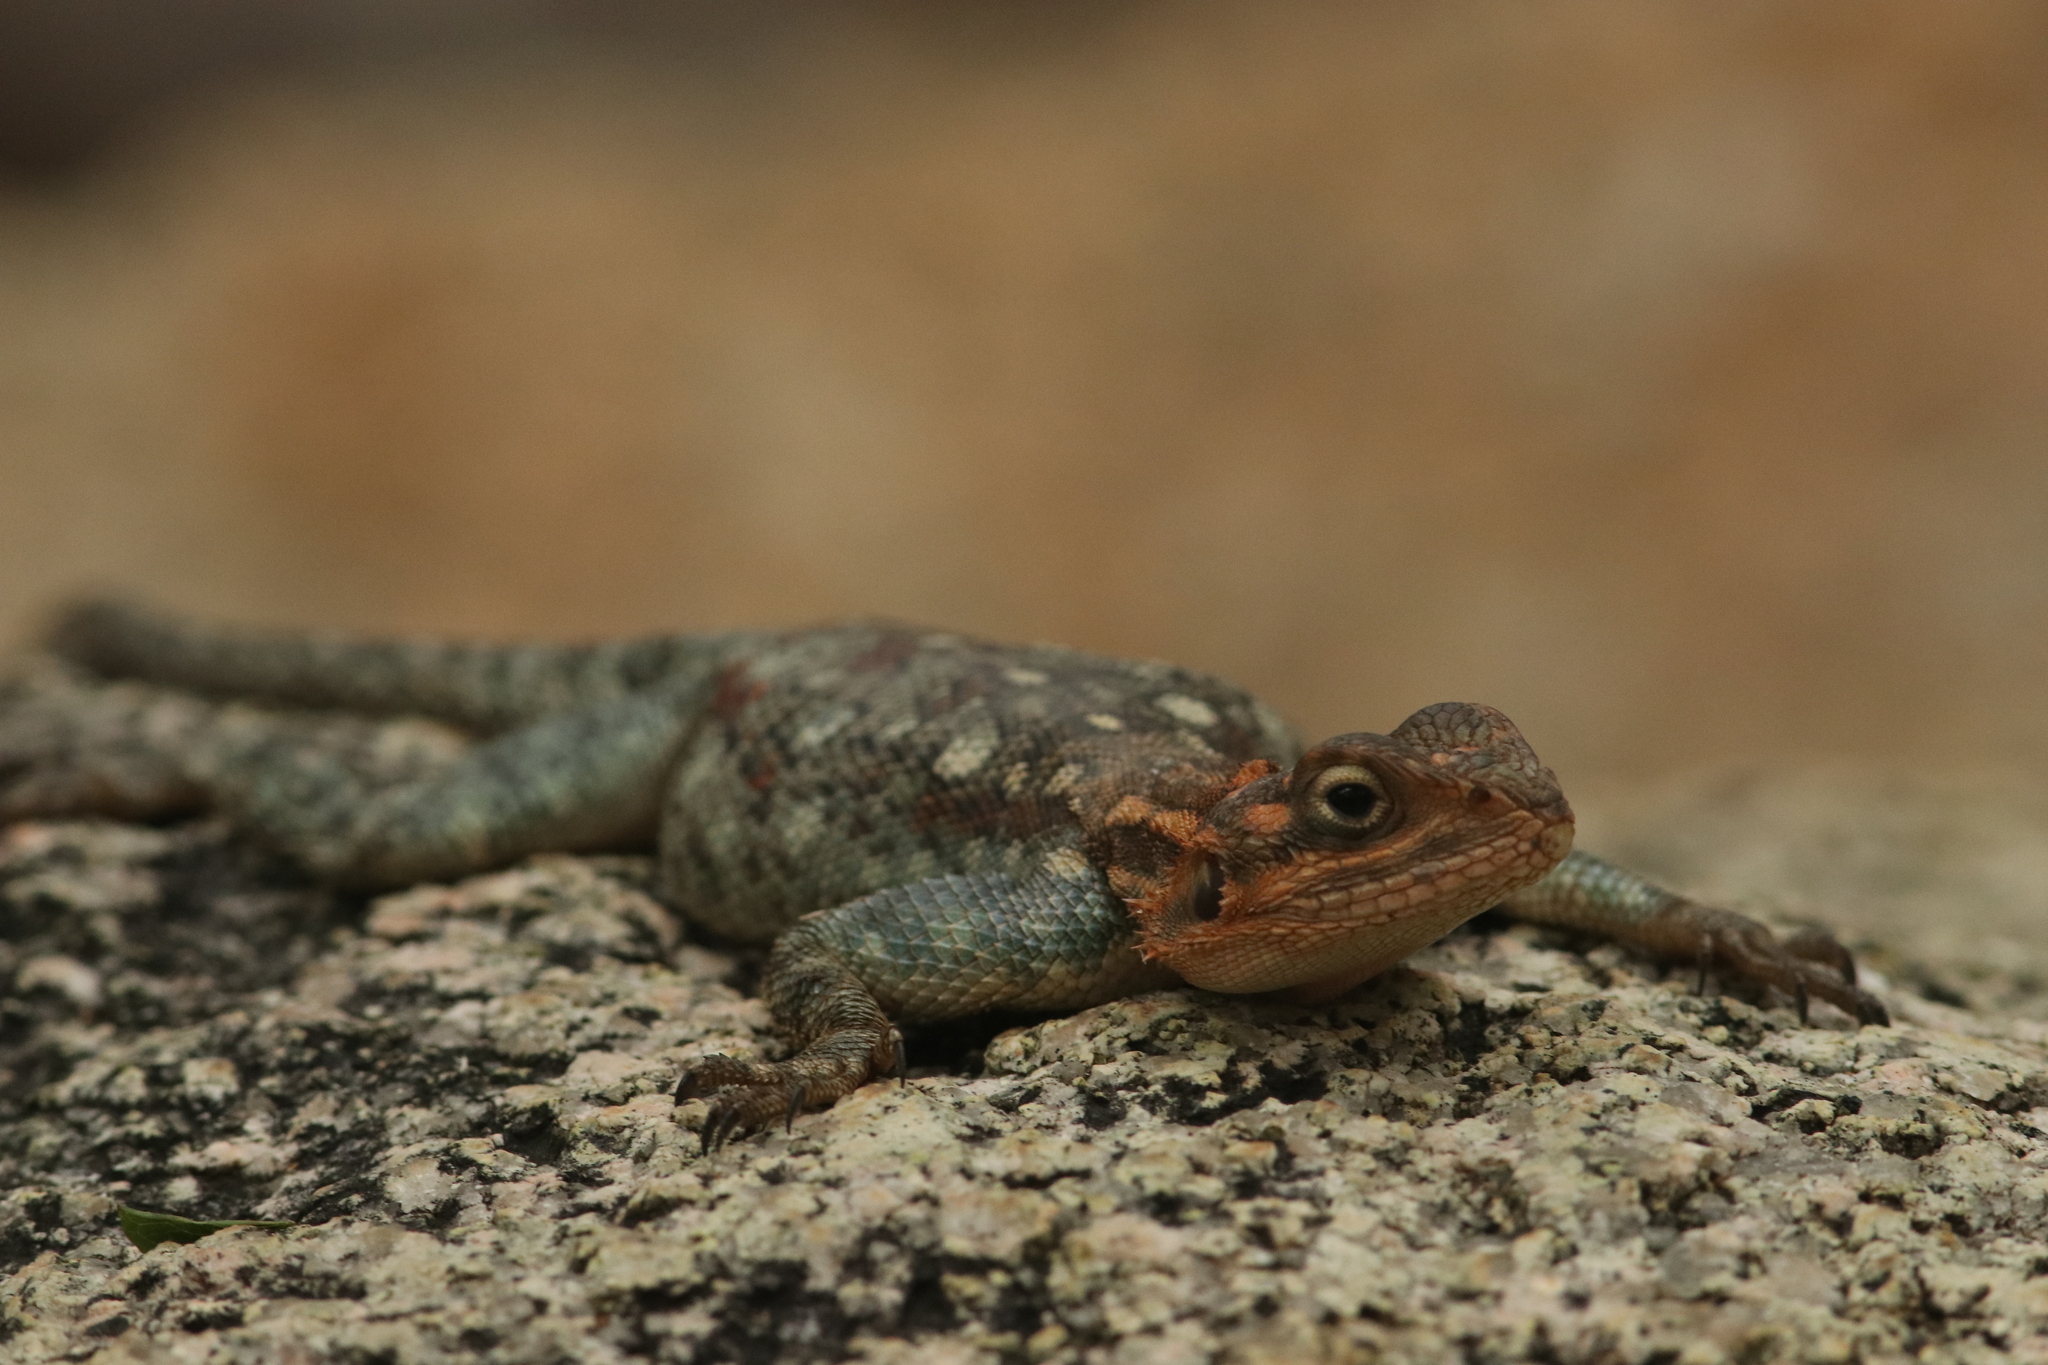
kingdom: Animalia
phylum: Chordata
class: Squamata
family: Agamidae
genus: Agama
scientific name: Agama dodomae
